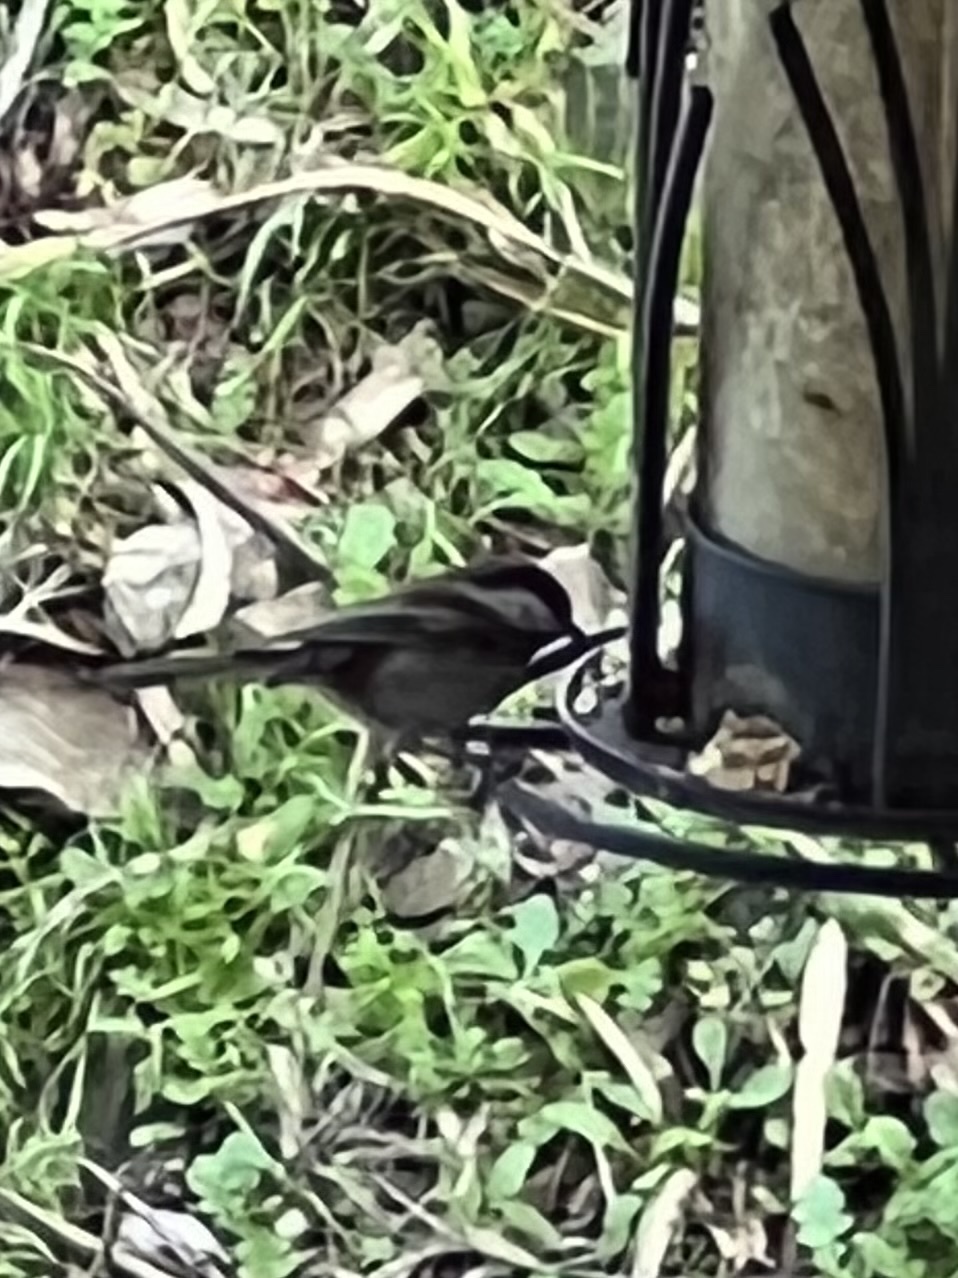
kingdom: Animalia
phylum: Chordata
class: Aves
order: Passeriformes
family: Paridae
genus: Poecile
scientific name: Poecile rufescens
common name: Chestnut-backed chickadee
